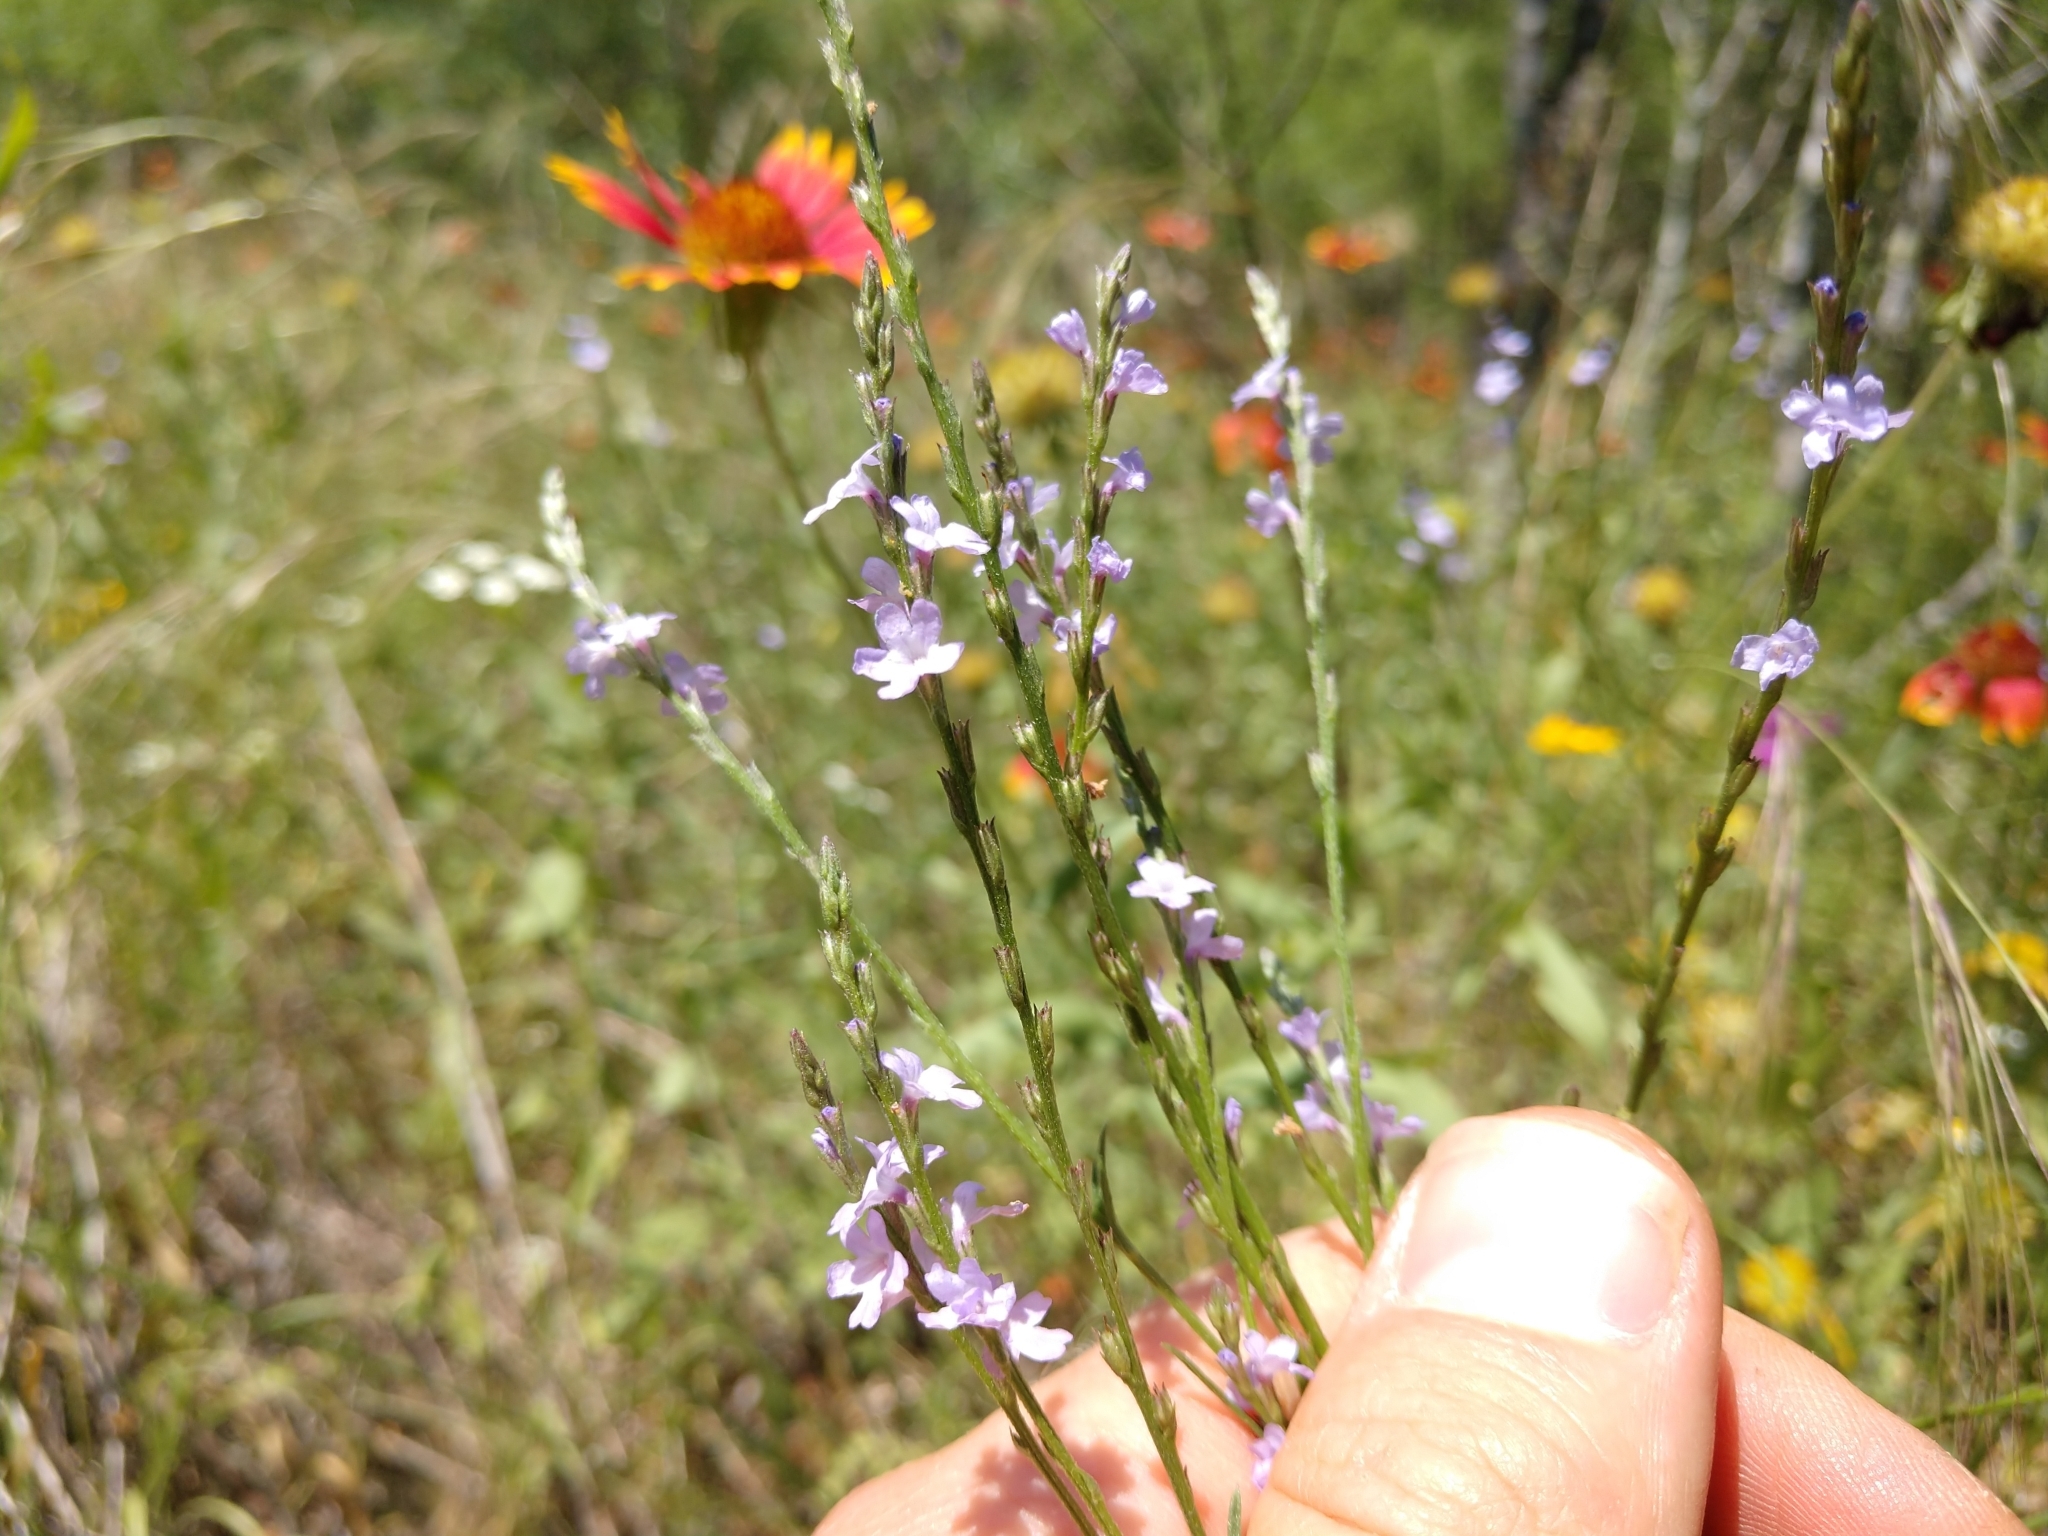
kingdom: Plantae
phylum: Tracheophyta
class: Magnoliopsida
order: Lamiales
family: Verbenaceae
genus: Verbena
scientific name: Verbena halei
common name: Texas vervain
